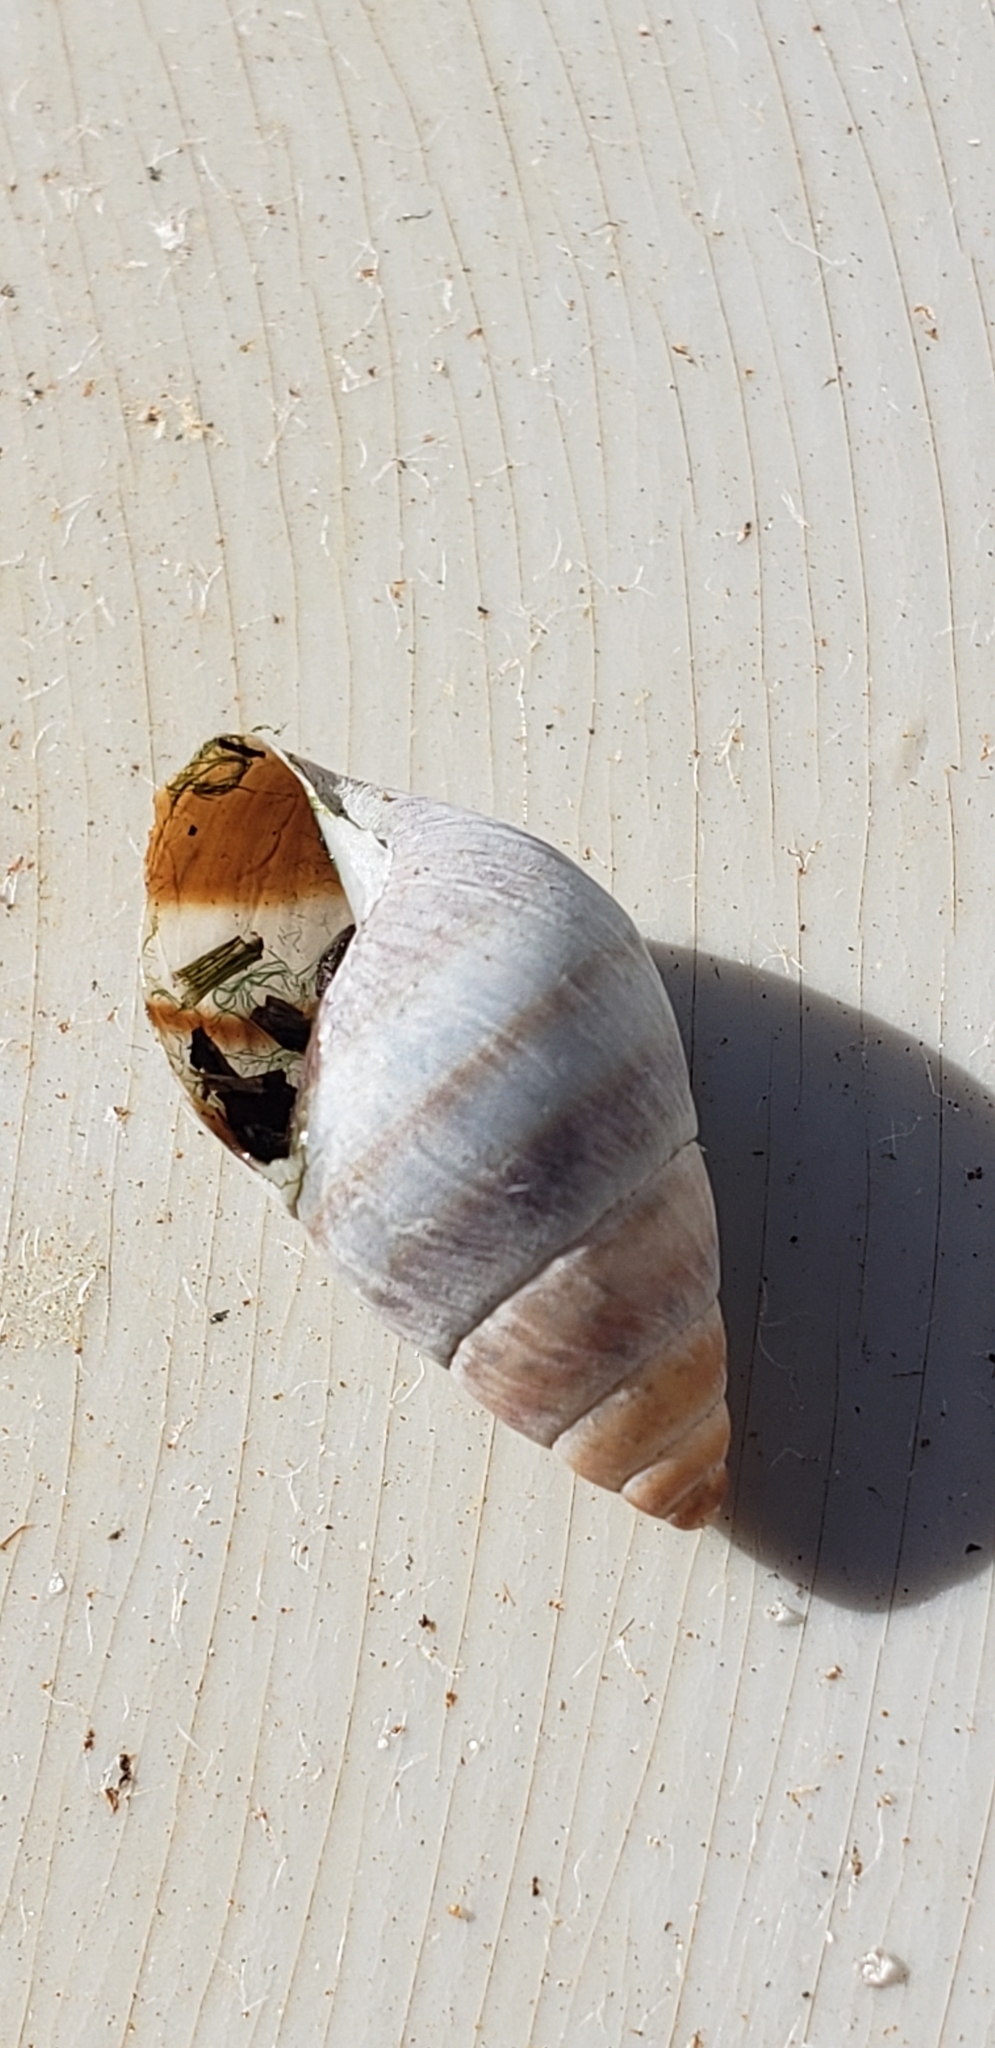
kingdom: Animalia
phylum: Mollusca
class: Gastropoda
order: Stylommatophora
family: Bulimulidae
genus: Bulimulus
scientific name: Bulimulus guadalupensis
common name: West indian bulimulus
